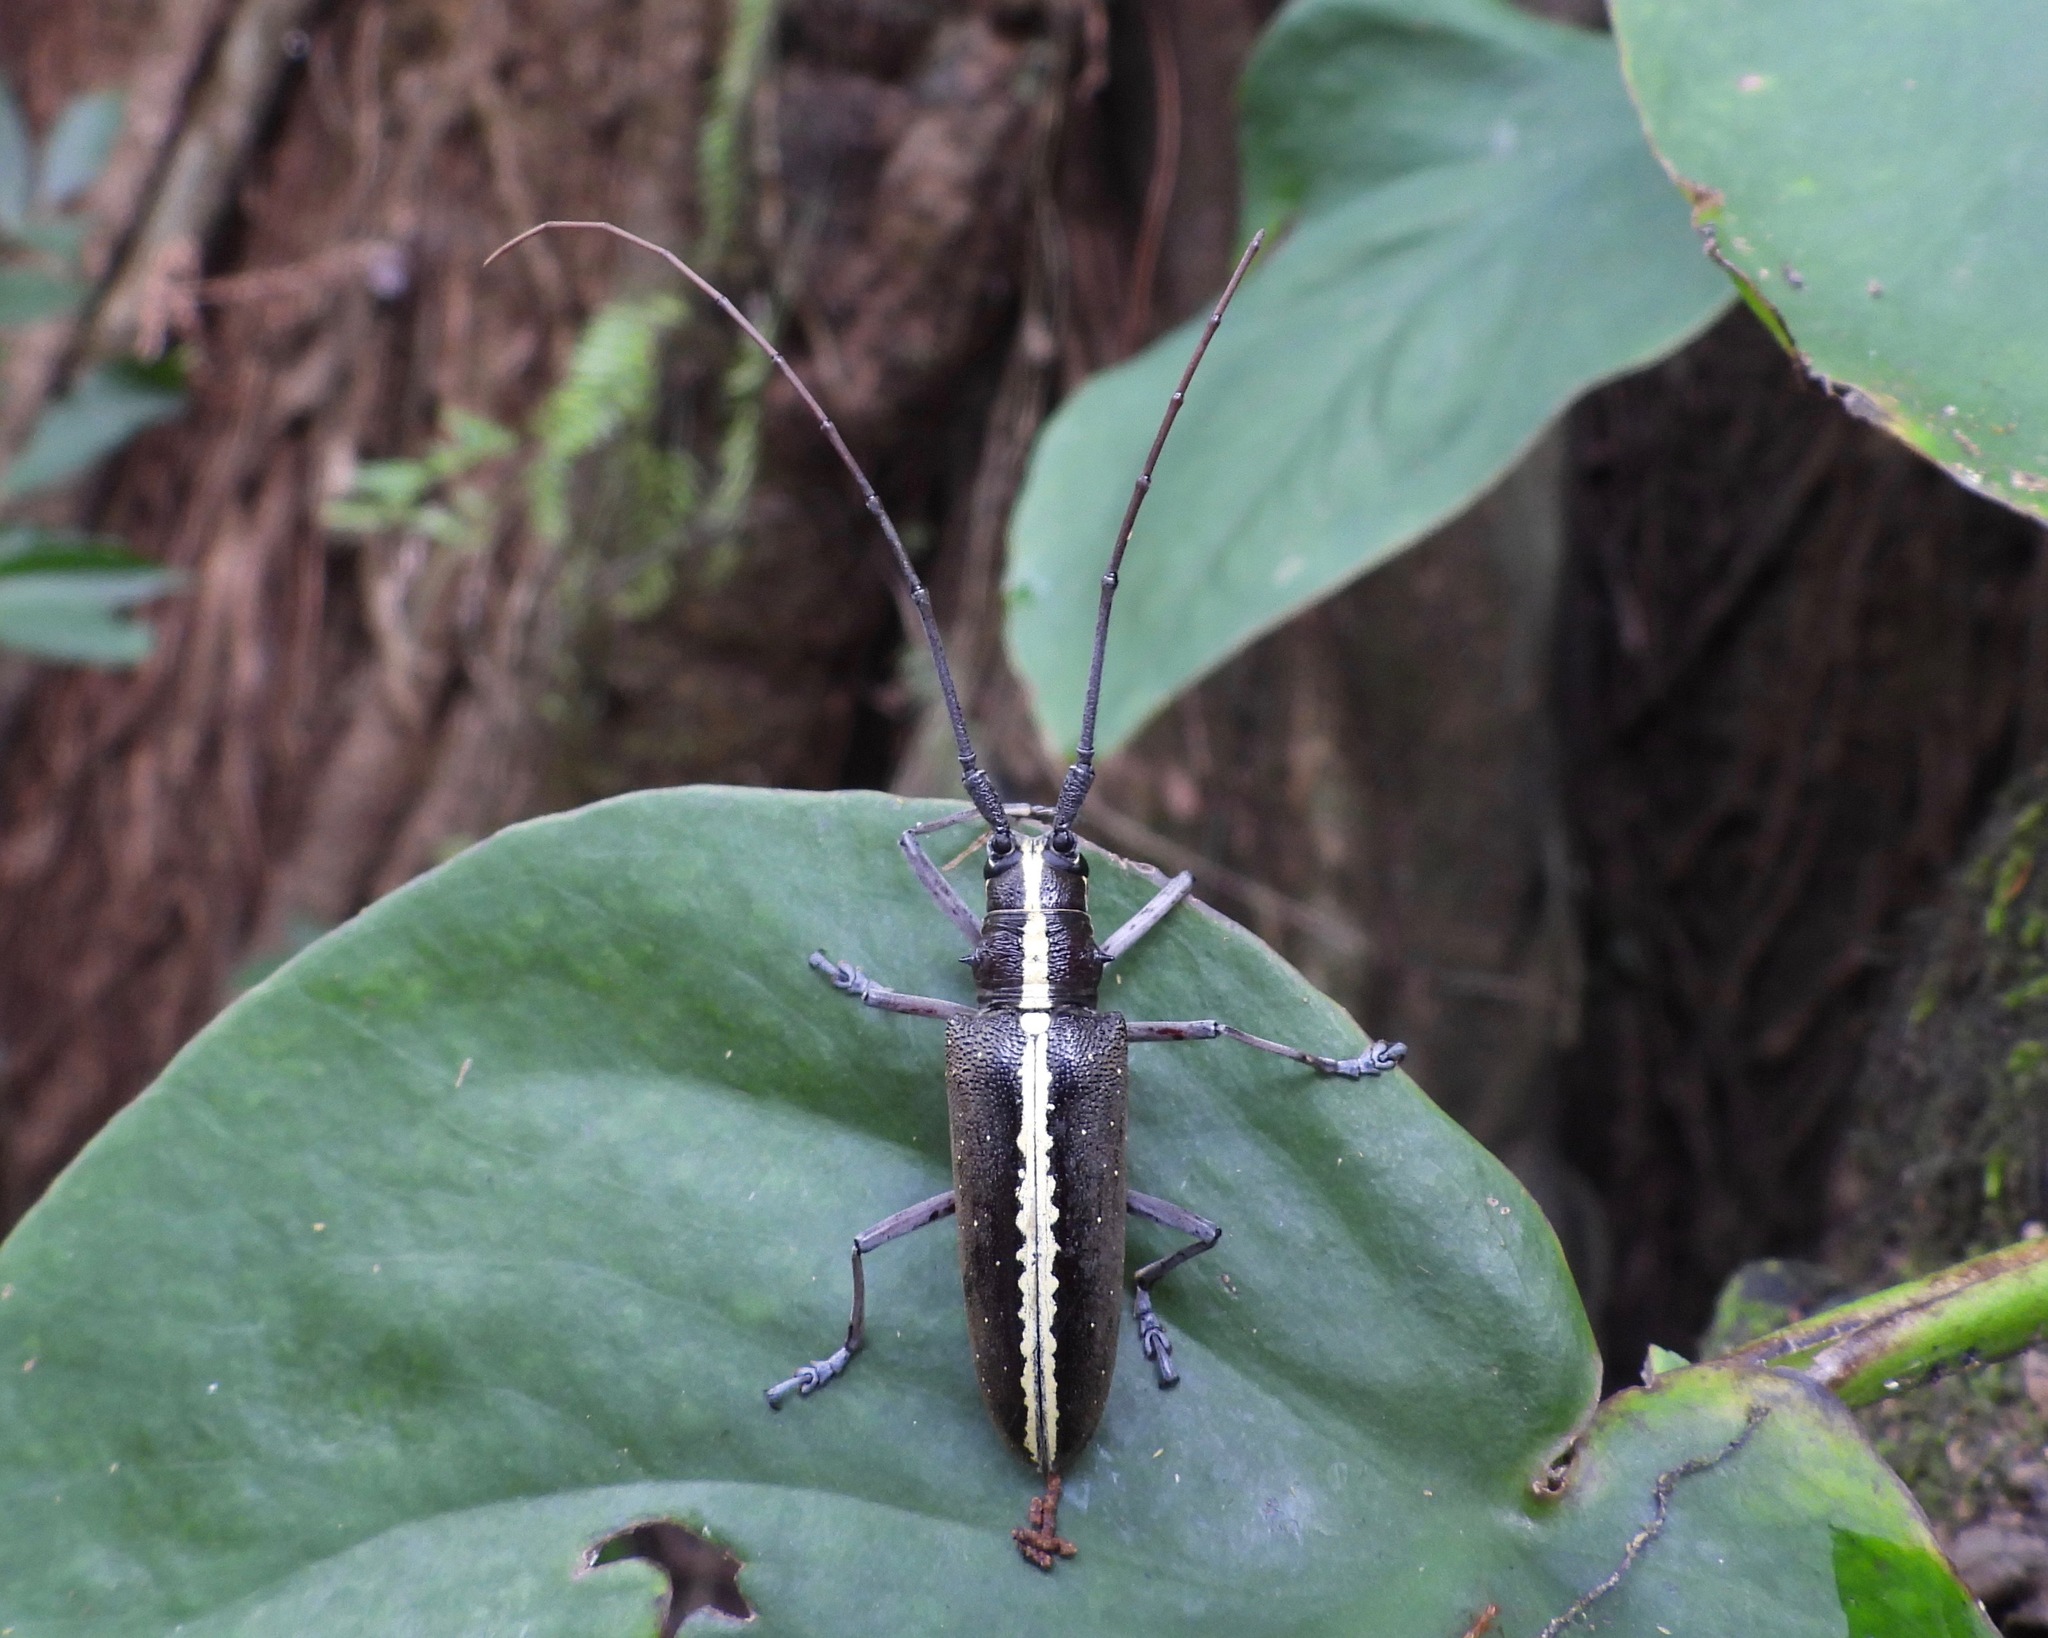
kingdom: Animalia
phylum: Arthropoda
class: Insecta
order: Coleoptera
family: Cerambycidae
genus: Taeniotes
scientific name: Taeniotes scalatus
